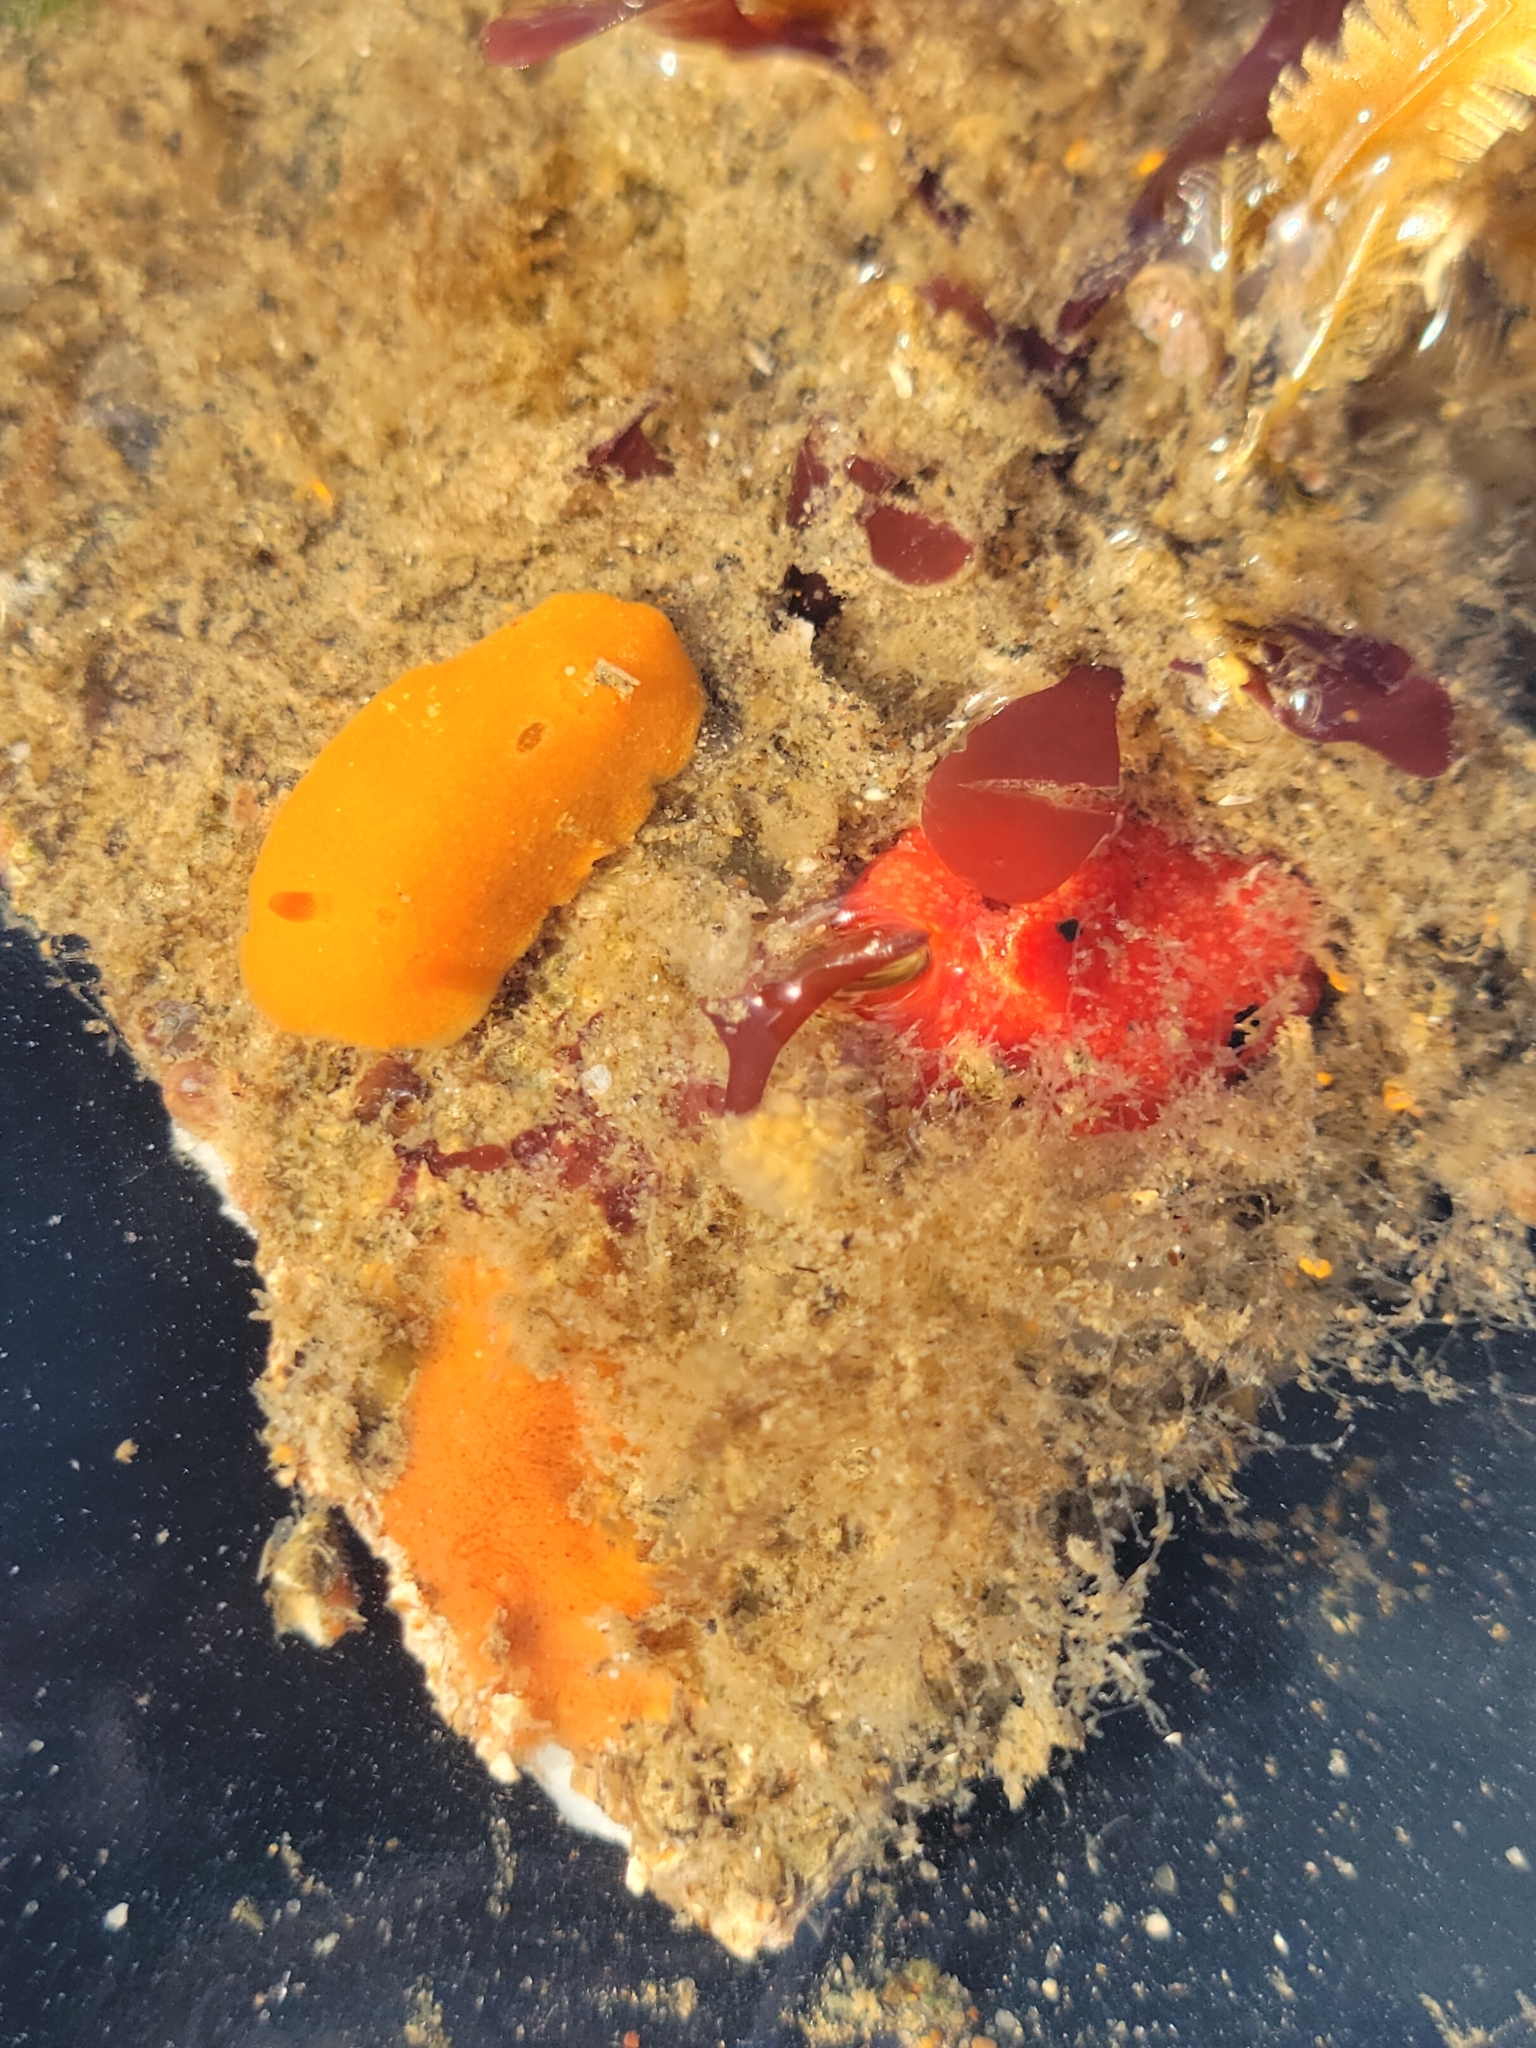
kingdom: Animalia
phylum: Mollusca
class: Gastropoda
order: Nudibranchia
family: Cadlinidae
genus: Aldisa
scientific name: Aldisa sanguinea
